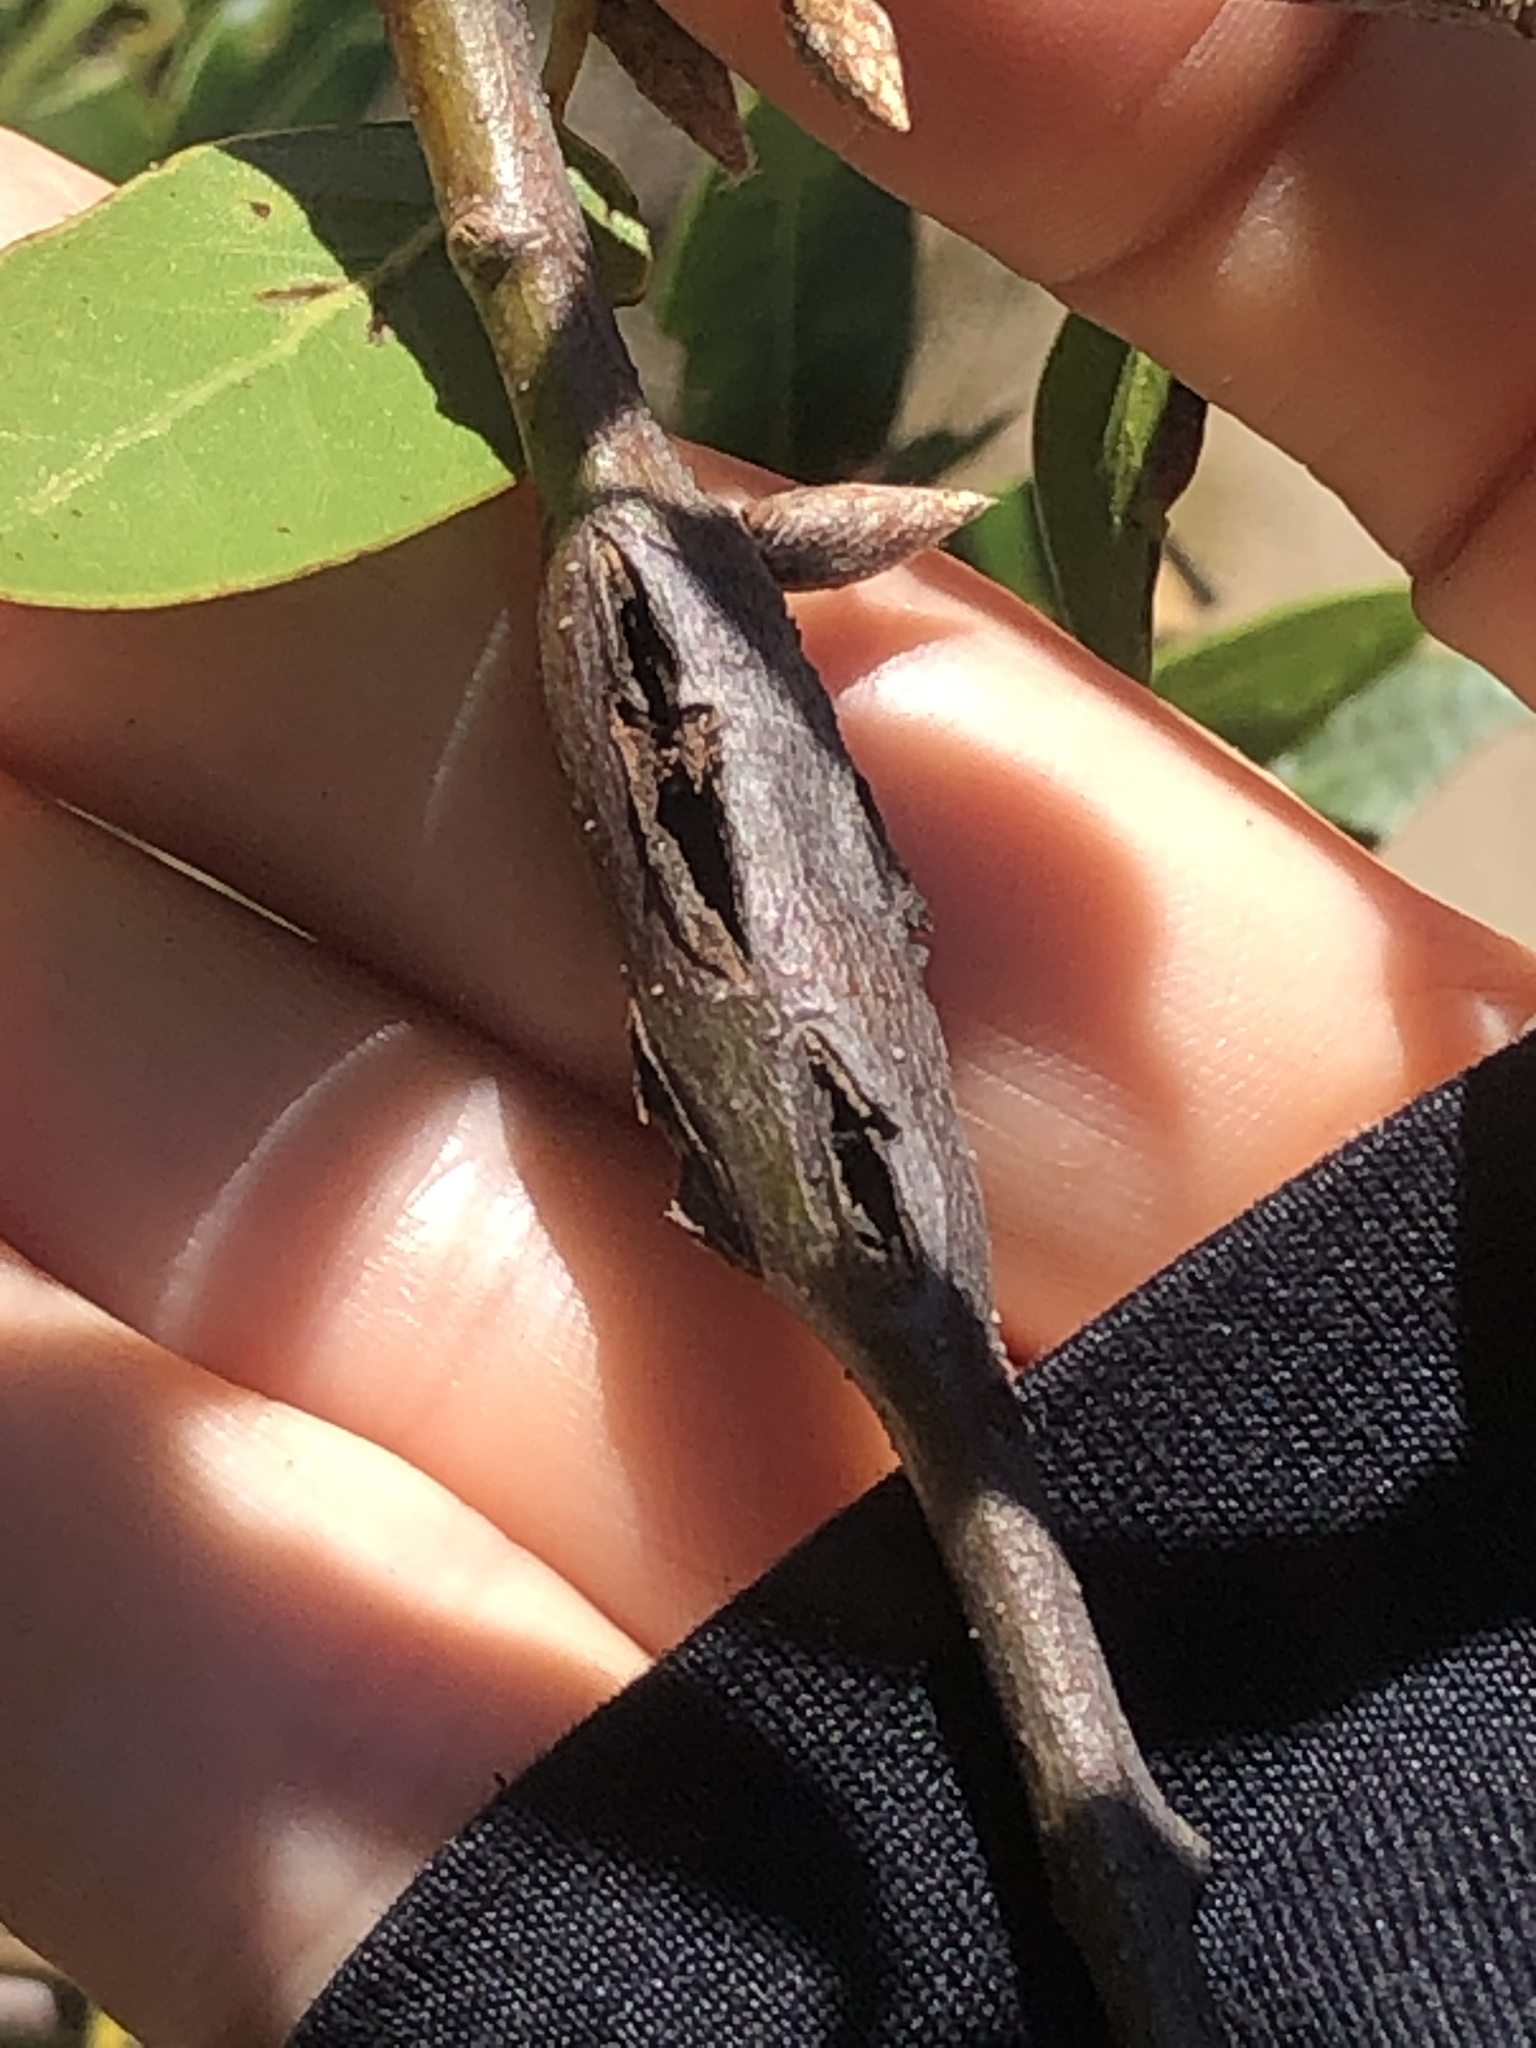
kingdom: Animalia
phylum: Arthropoda
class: Insecta
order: Hymenoptera
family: Cynipidae
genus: Callirhytis
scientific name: Callirhytis
